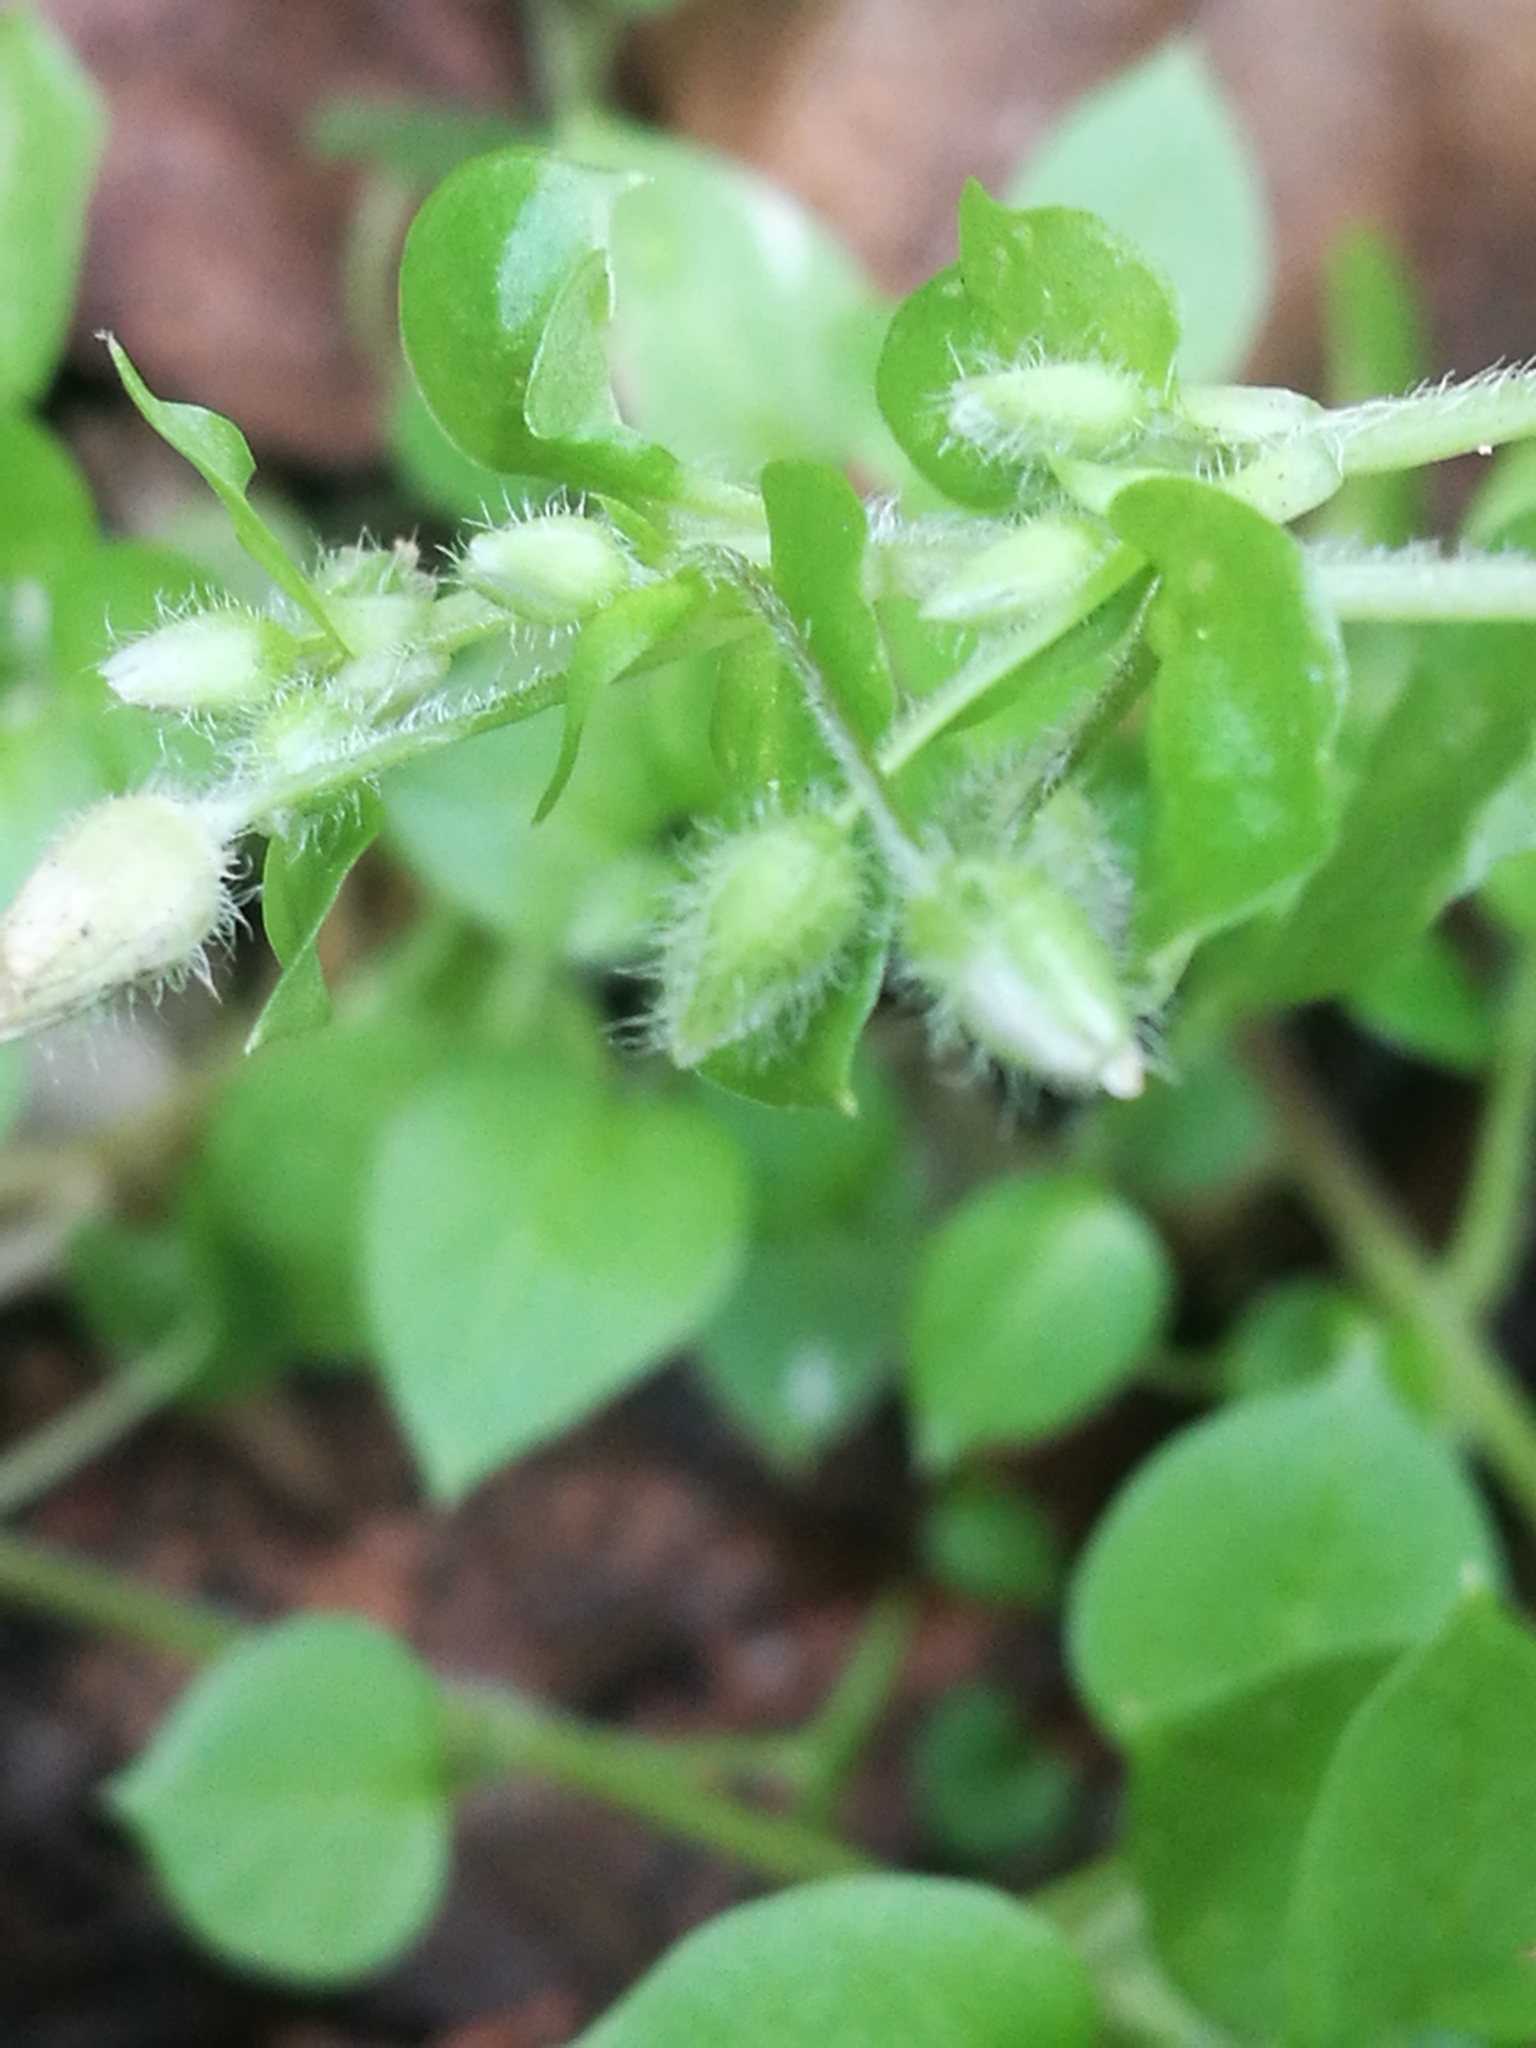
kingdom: Plantae
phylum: Tracheophyta
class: Magnoliopsida
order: Caryophyllales
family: Caryophyllaceae
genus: Stellaria
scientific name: Stellaria media
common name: Common chickweed
